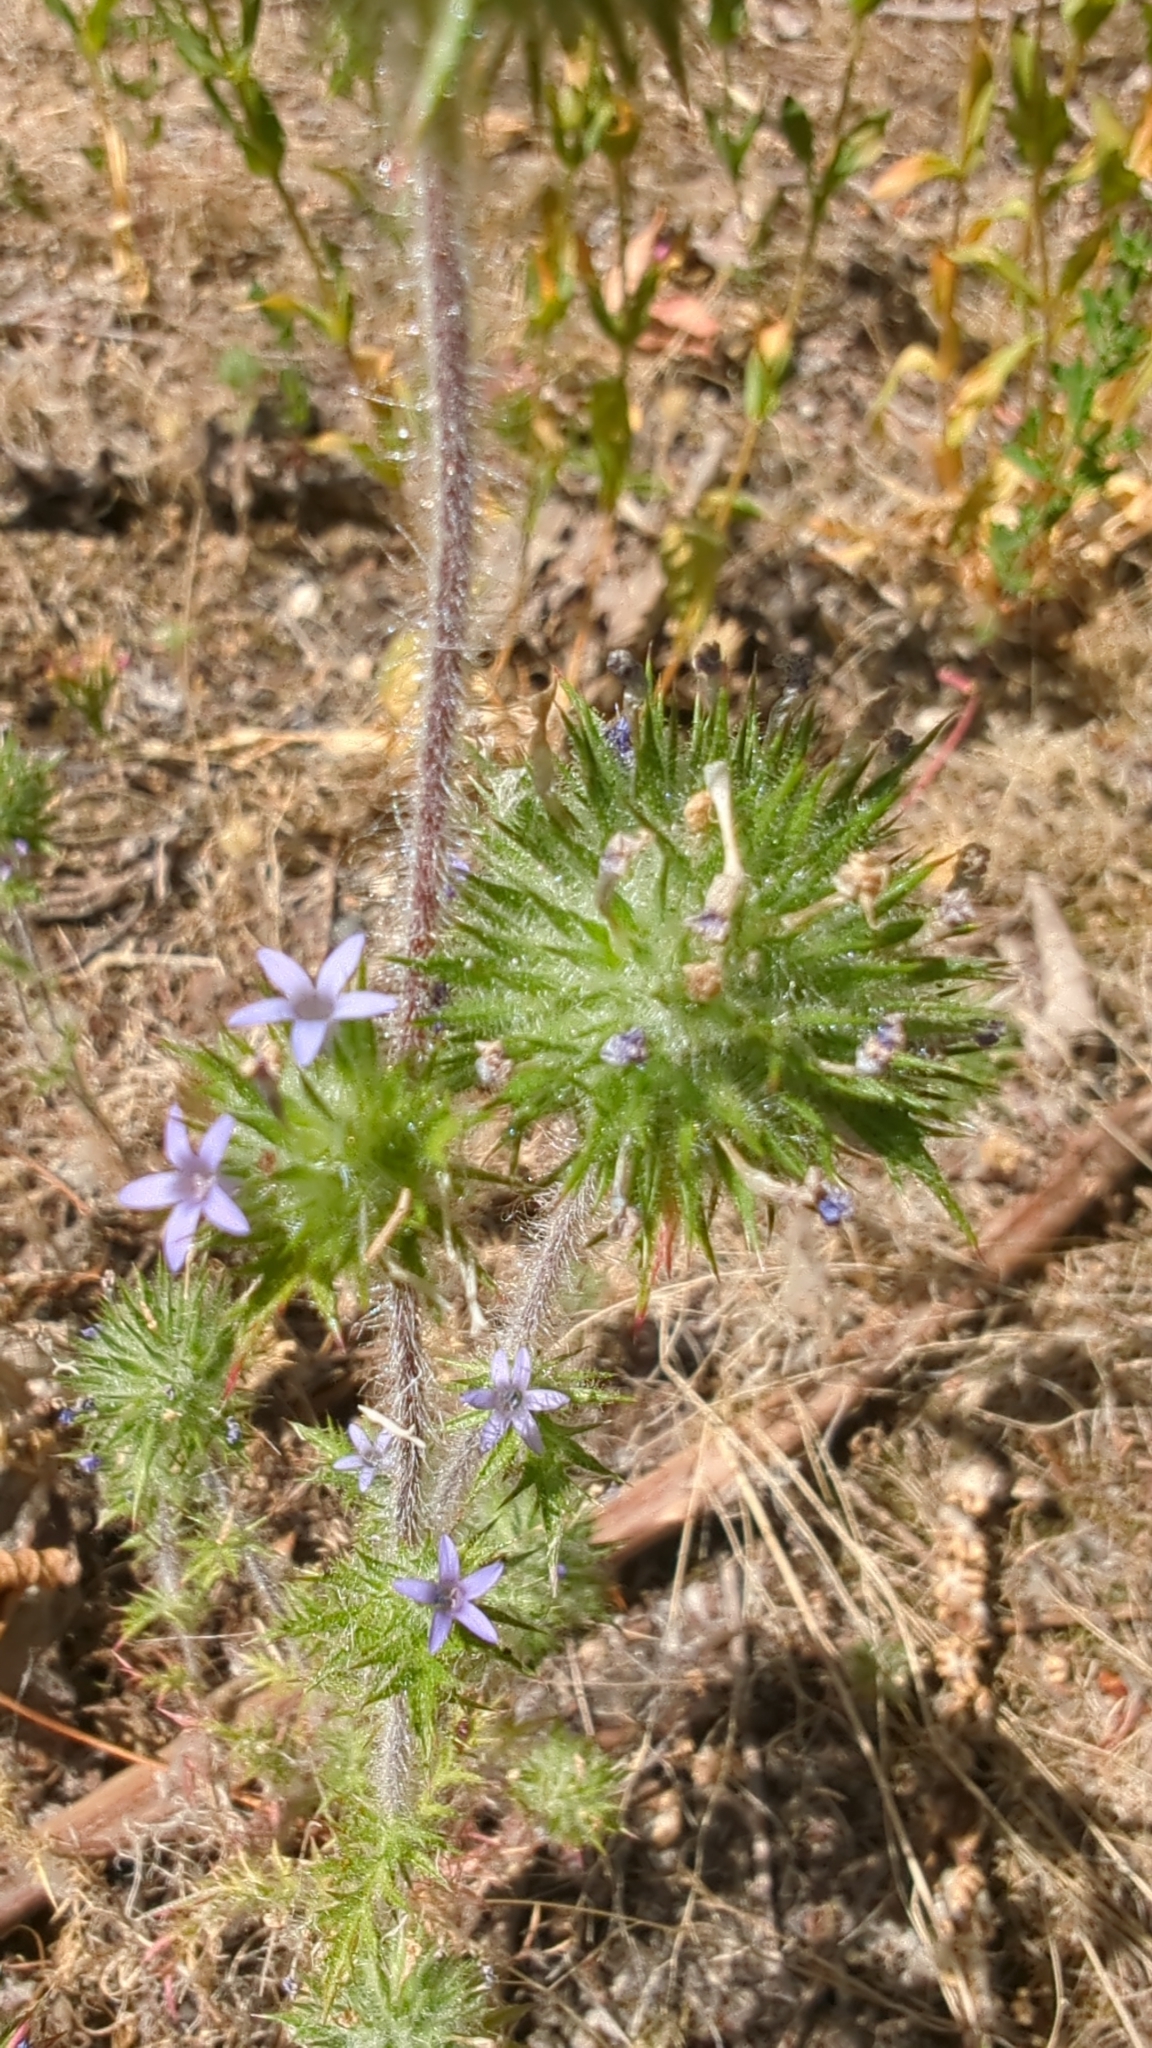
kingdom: Plantae
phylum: Tracheophyta
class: Magnoliopsida
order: Ericales
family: Polemoniaceae
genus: Navarretia
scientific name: Navarretia squarrosa
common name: Skunkweed
